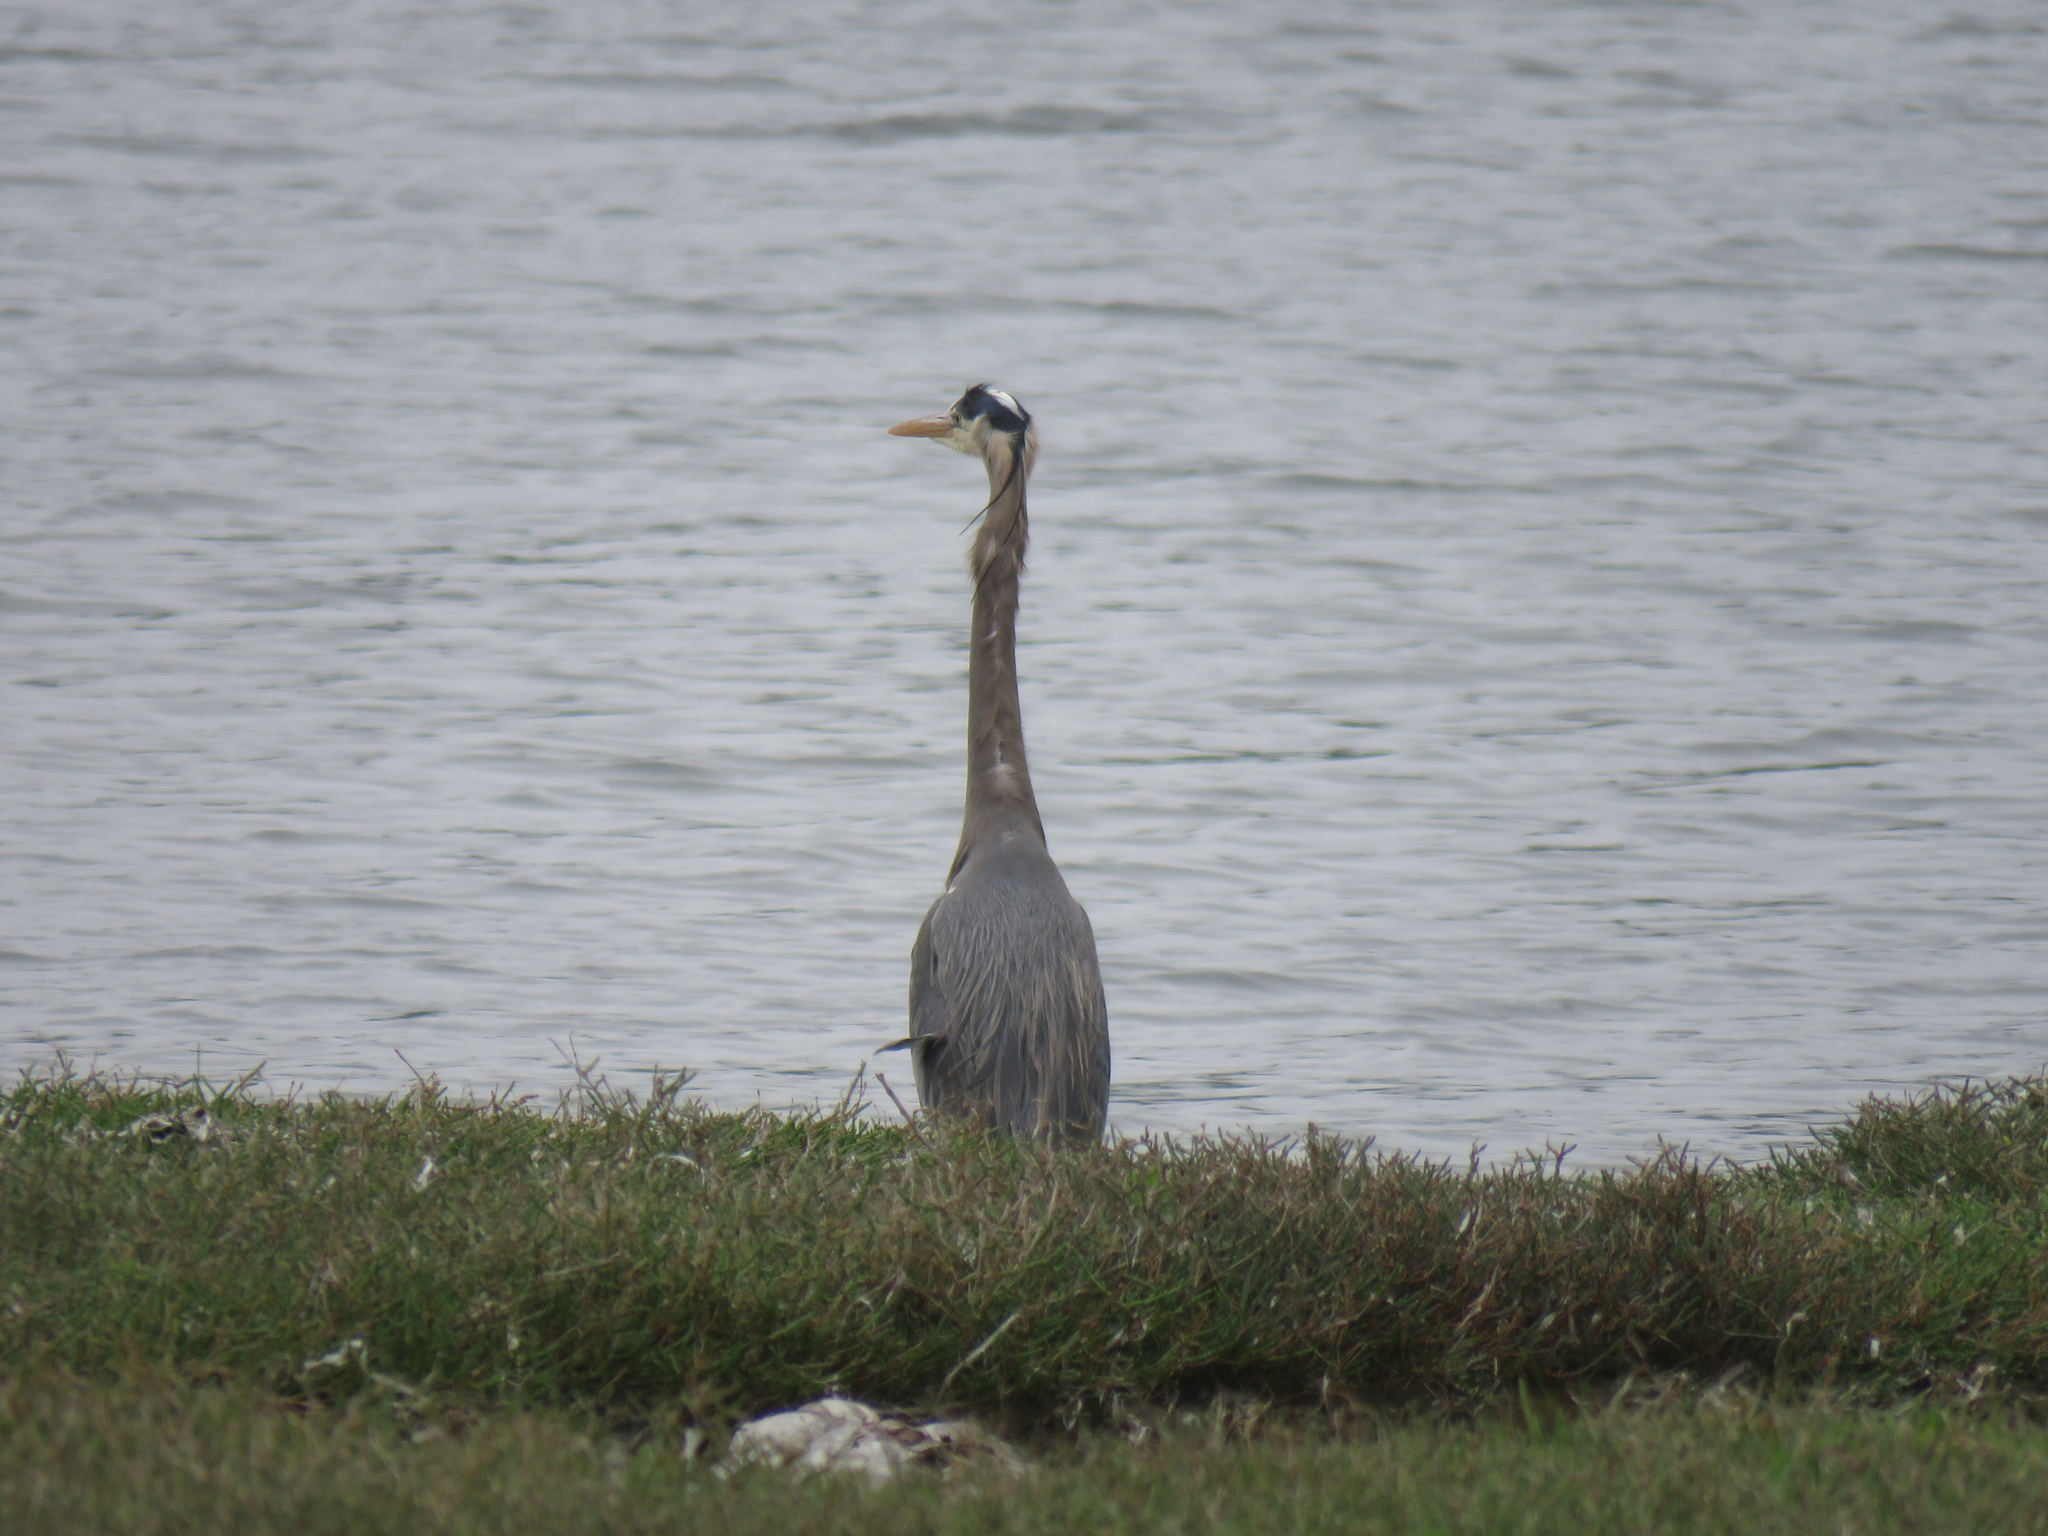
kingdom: Animalia
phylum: Chordata
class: Aves
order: Pelecaniformes
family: Ardeidae
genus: Ardea
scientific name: Ardea herodias
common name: Great blue heron
